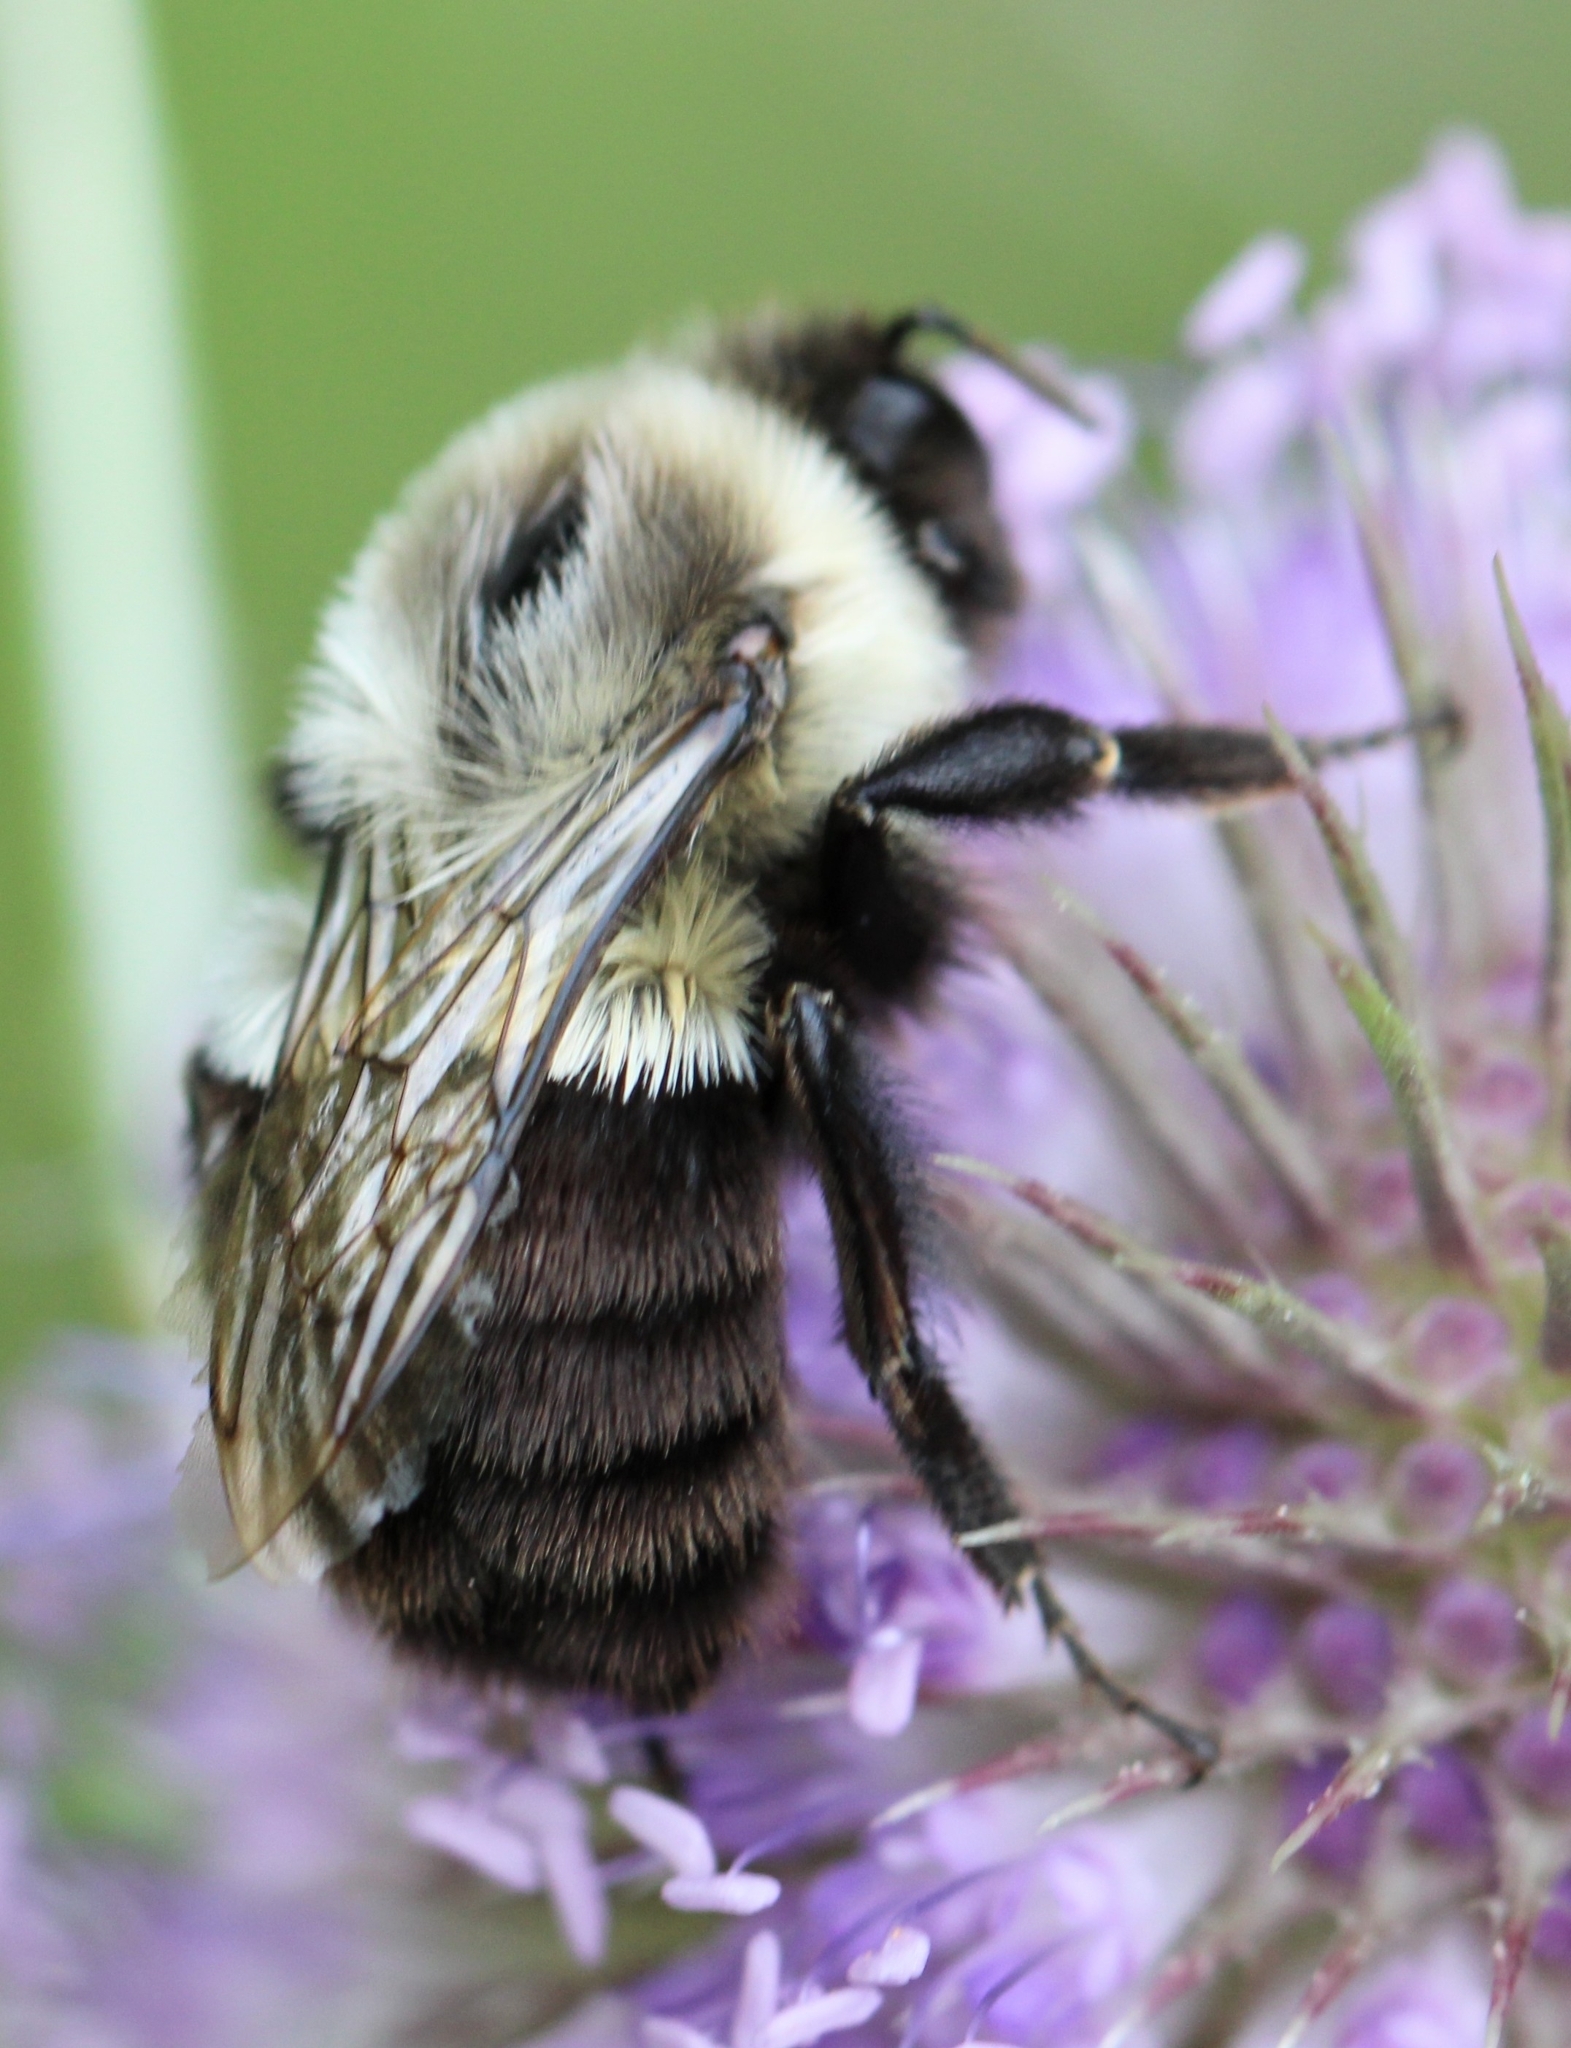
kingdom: Animalia
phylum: Arthropoda
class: Insecta
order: Hymenoptera
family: Apidae
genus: Bombus
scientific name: Bombus impatiens
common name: Common eastern bumble bee
